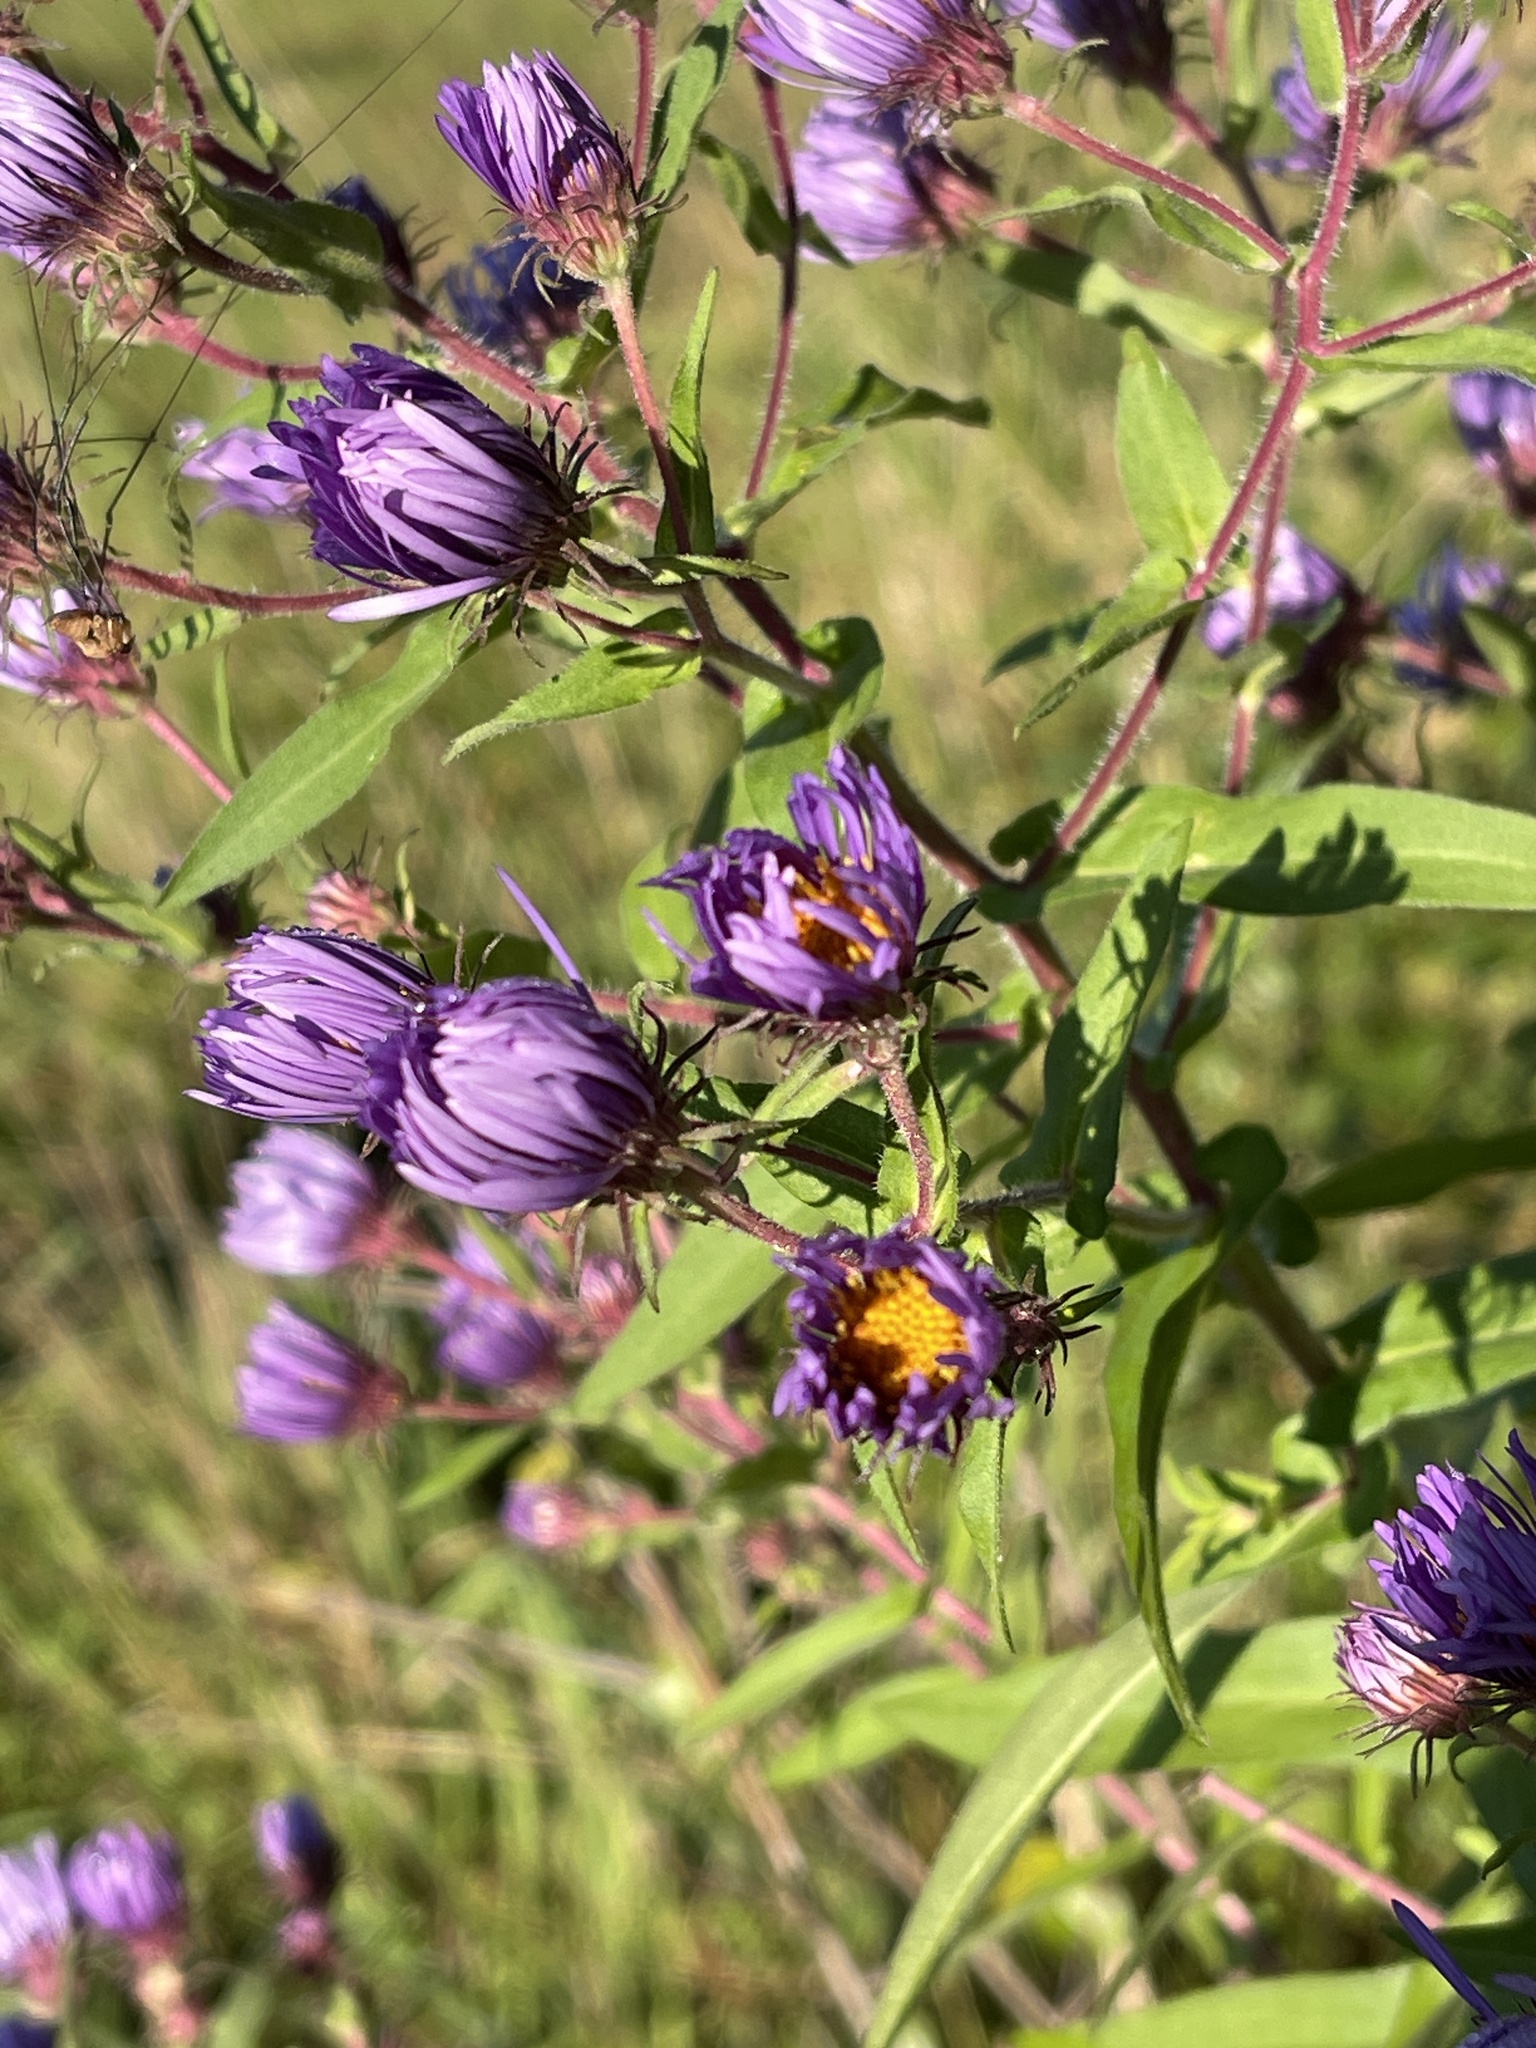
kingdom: Plantae
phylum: Tracheophyta
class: Magnoliopsida
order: Asterales
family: Asteraceae
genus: Symphyotrichum
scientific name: Symphyotrichum novae-angliae
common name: Michaelmas daisy
